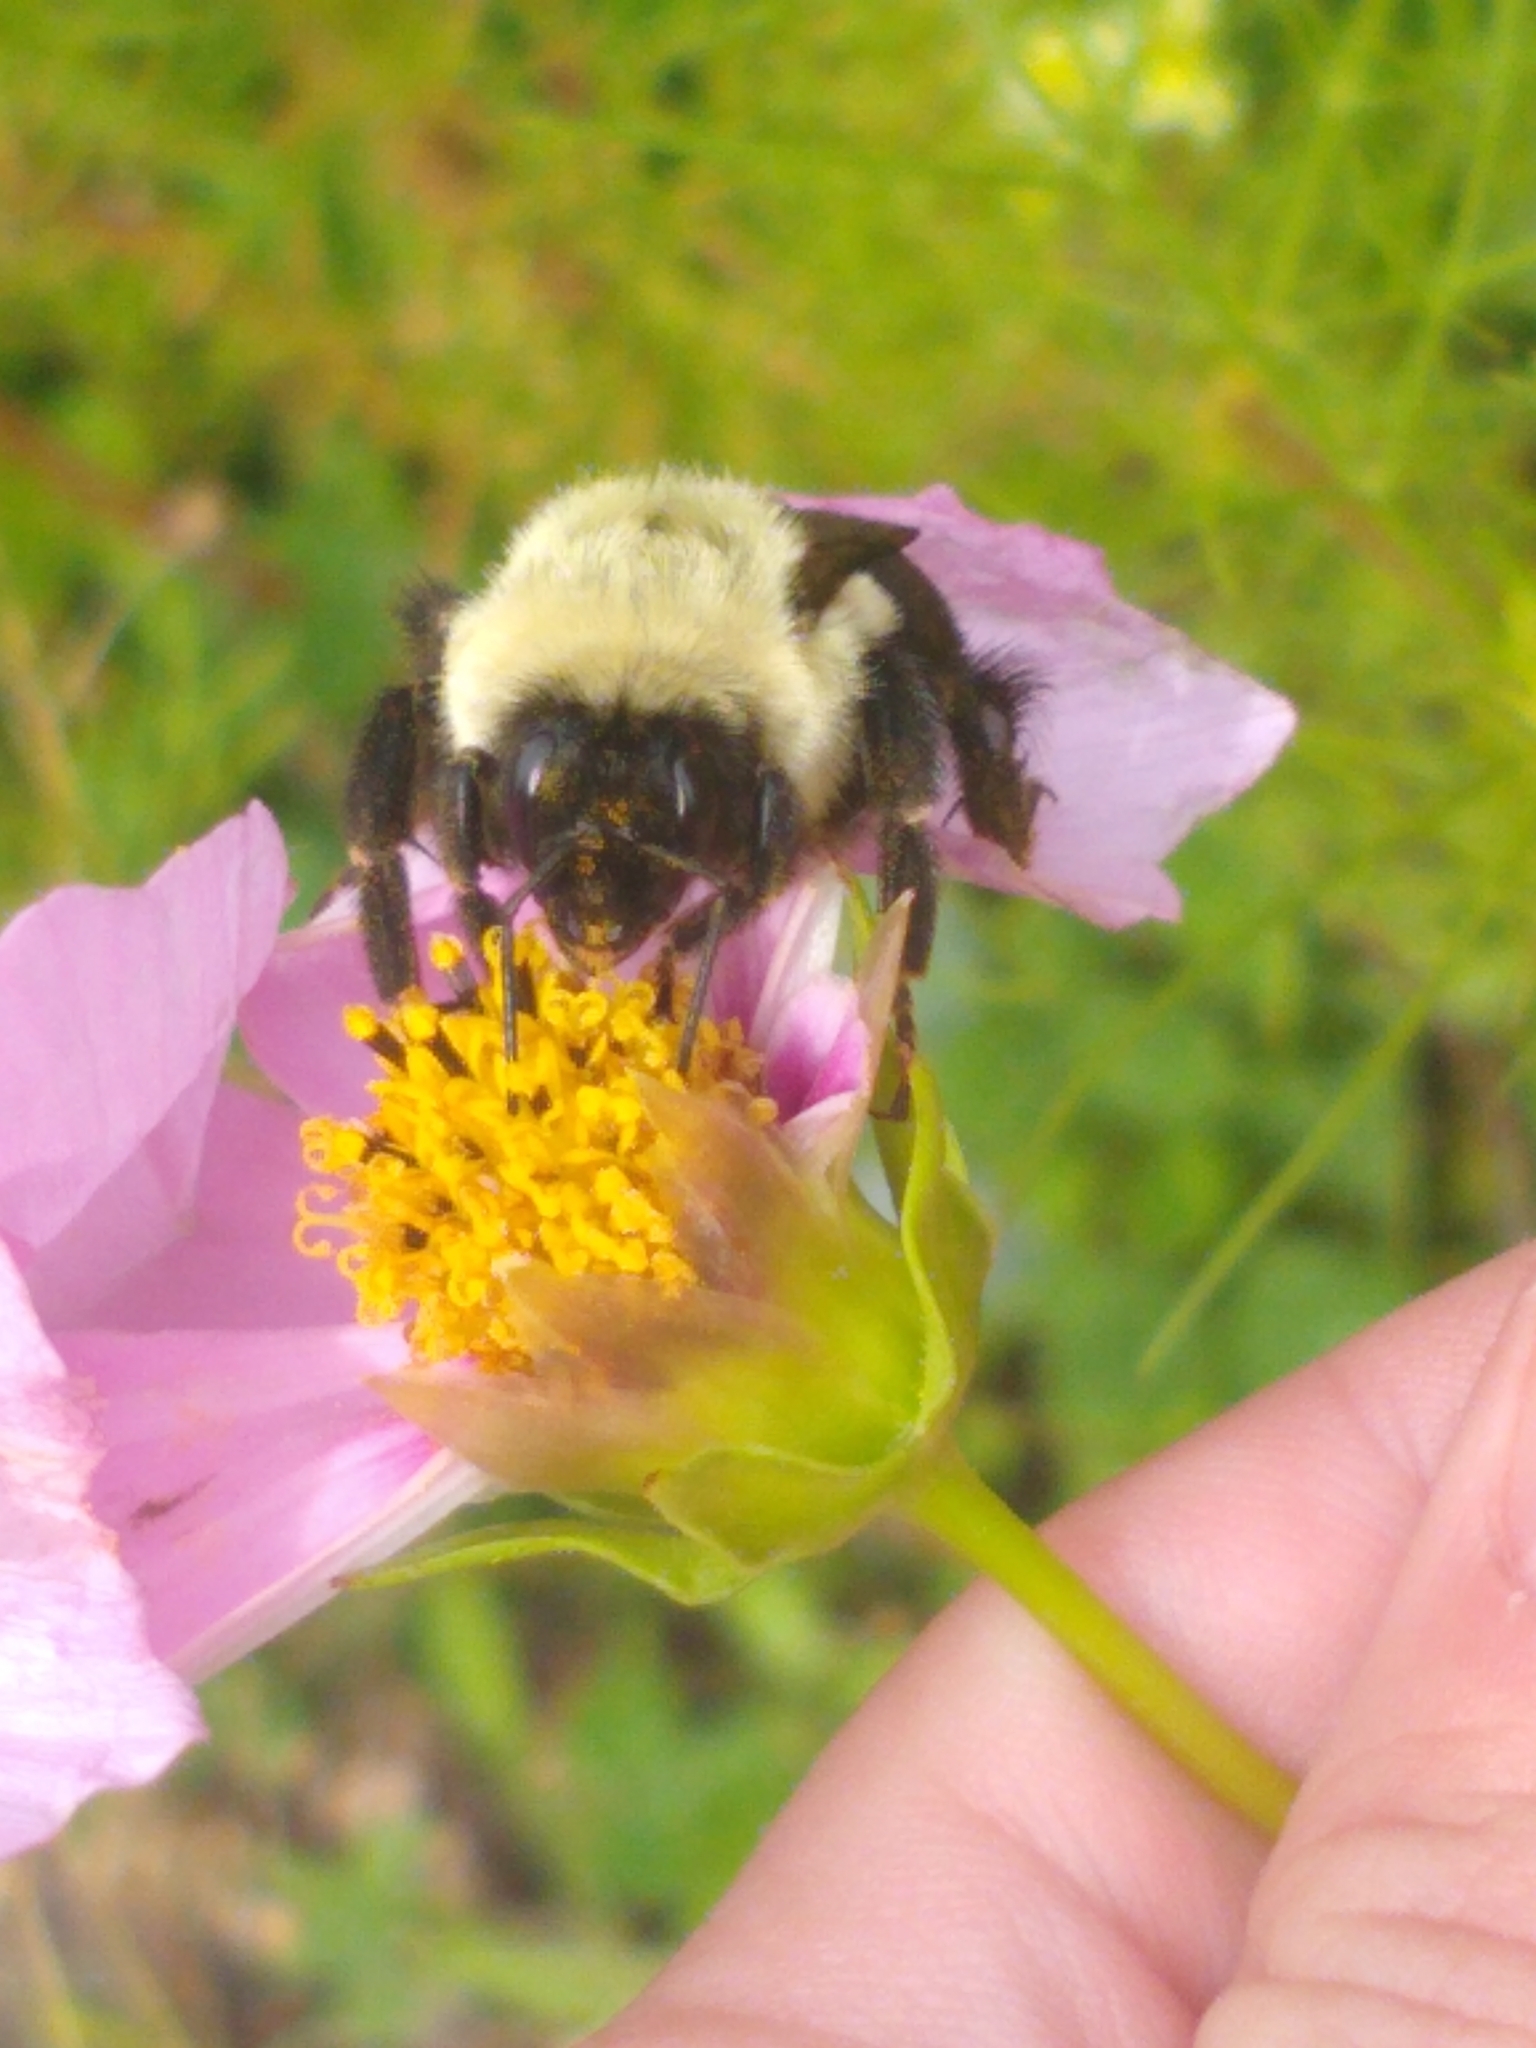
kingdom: Animalia
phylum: Arthropoda
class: Insecta
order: Hymenoptera
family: Apidae
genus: Bombus
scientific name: Bombus impatiens
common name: Common eastern bumble bee
